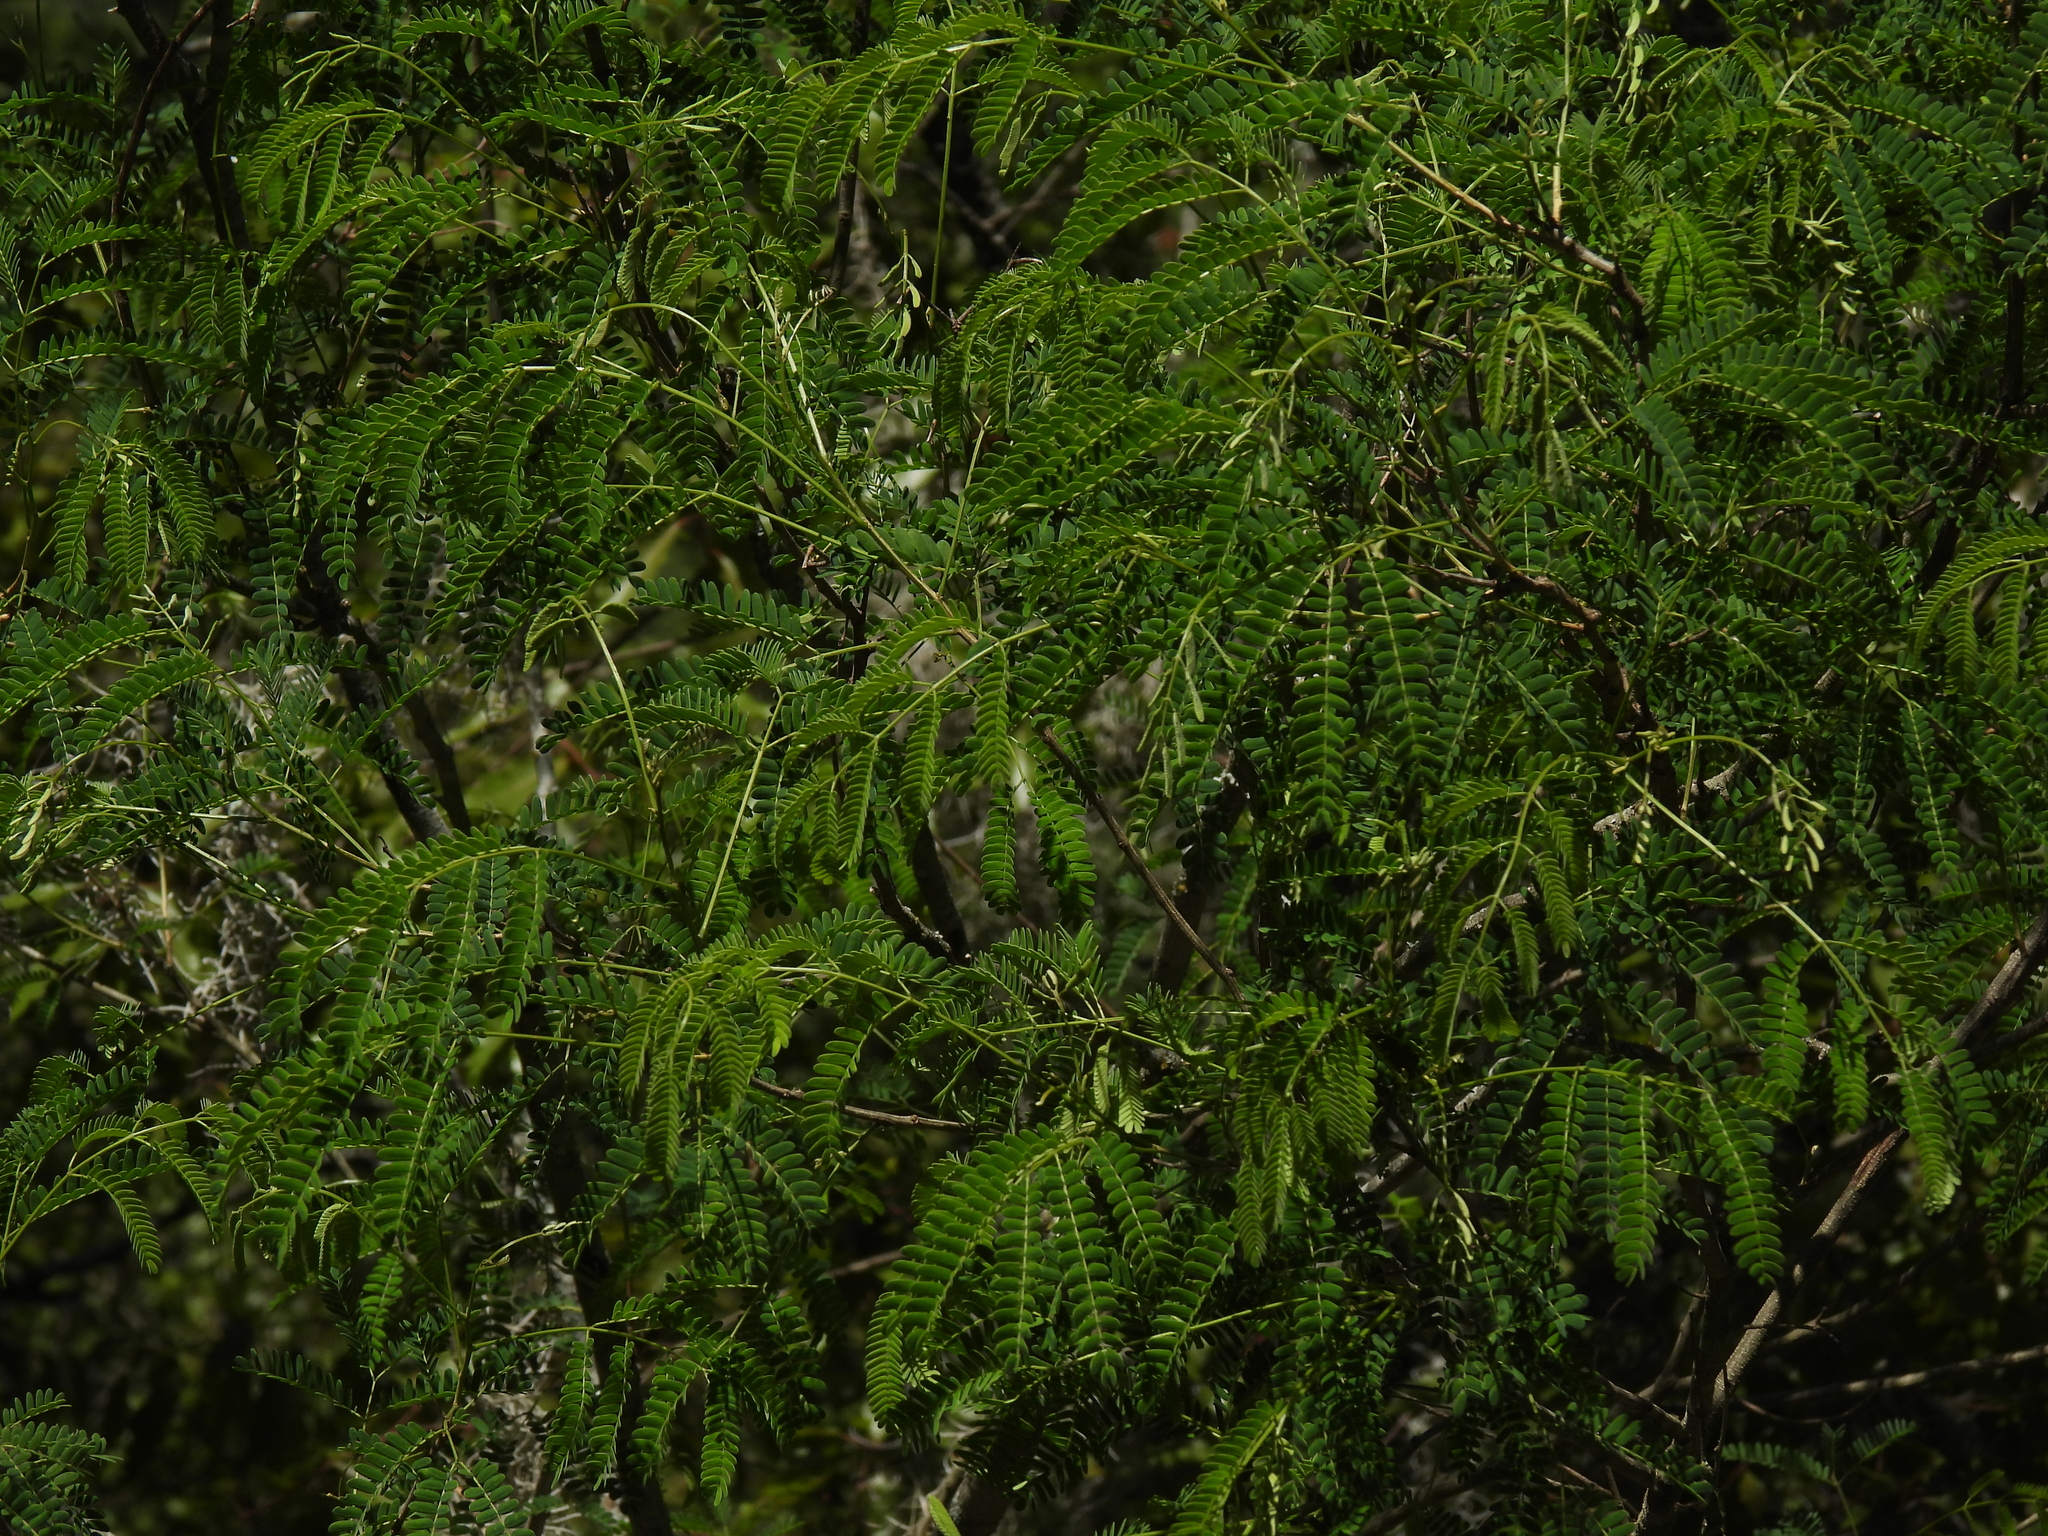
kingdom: Plantae
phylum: Tracheophyta
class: Magnoliopsida
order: Fabales
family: Fabaceae
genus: Mariosousa
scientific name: Mariosousa coulteri
